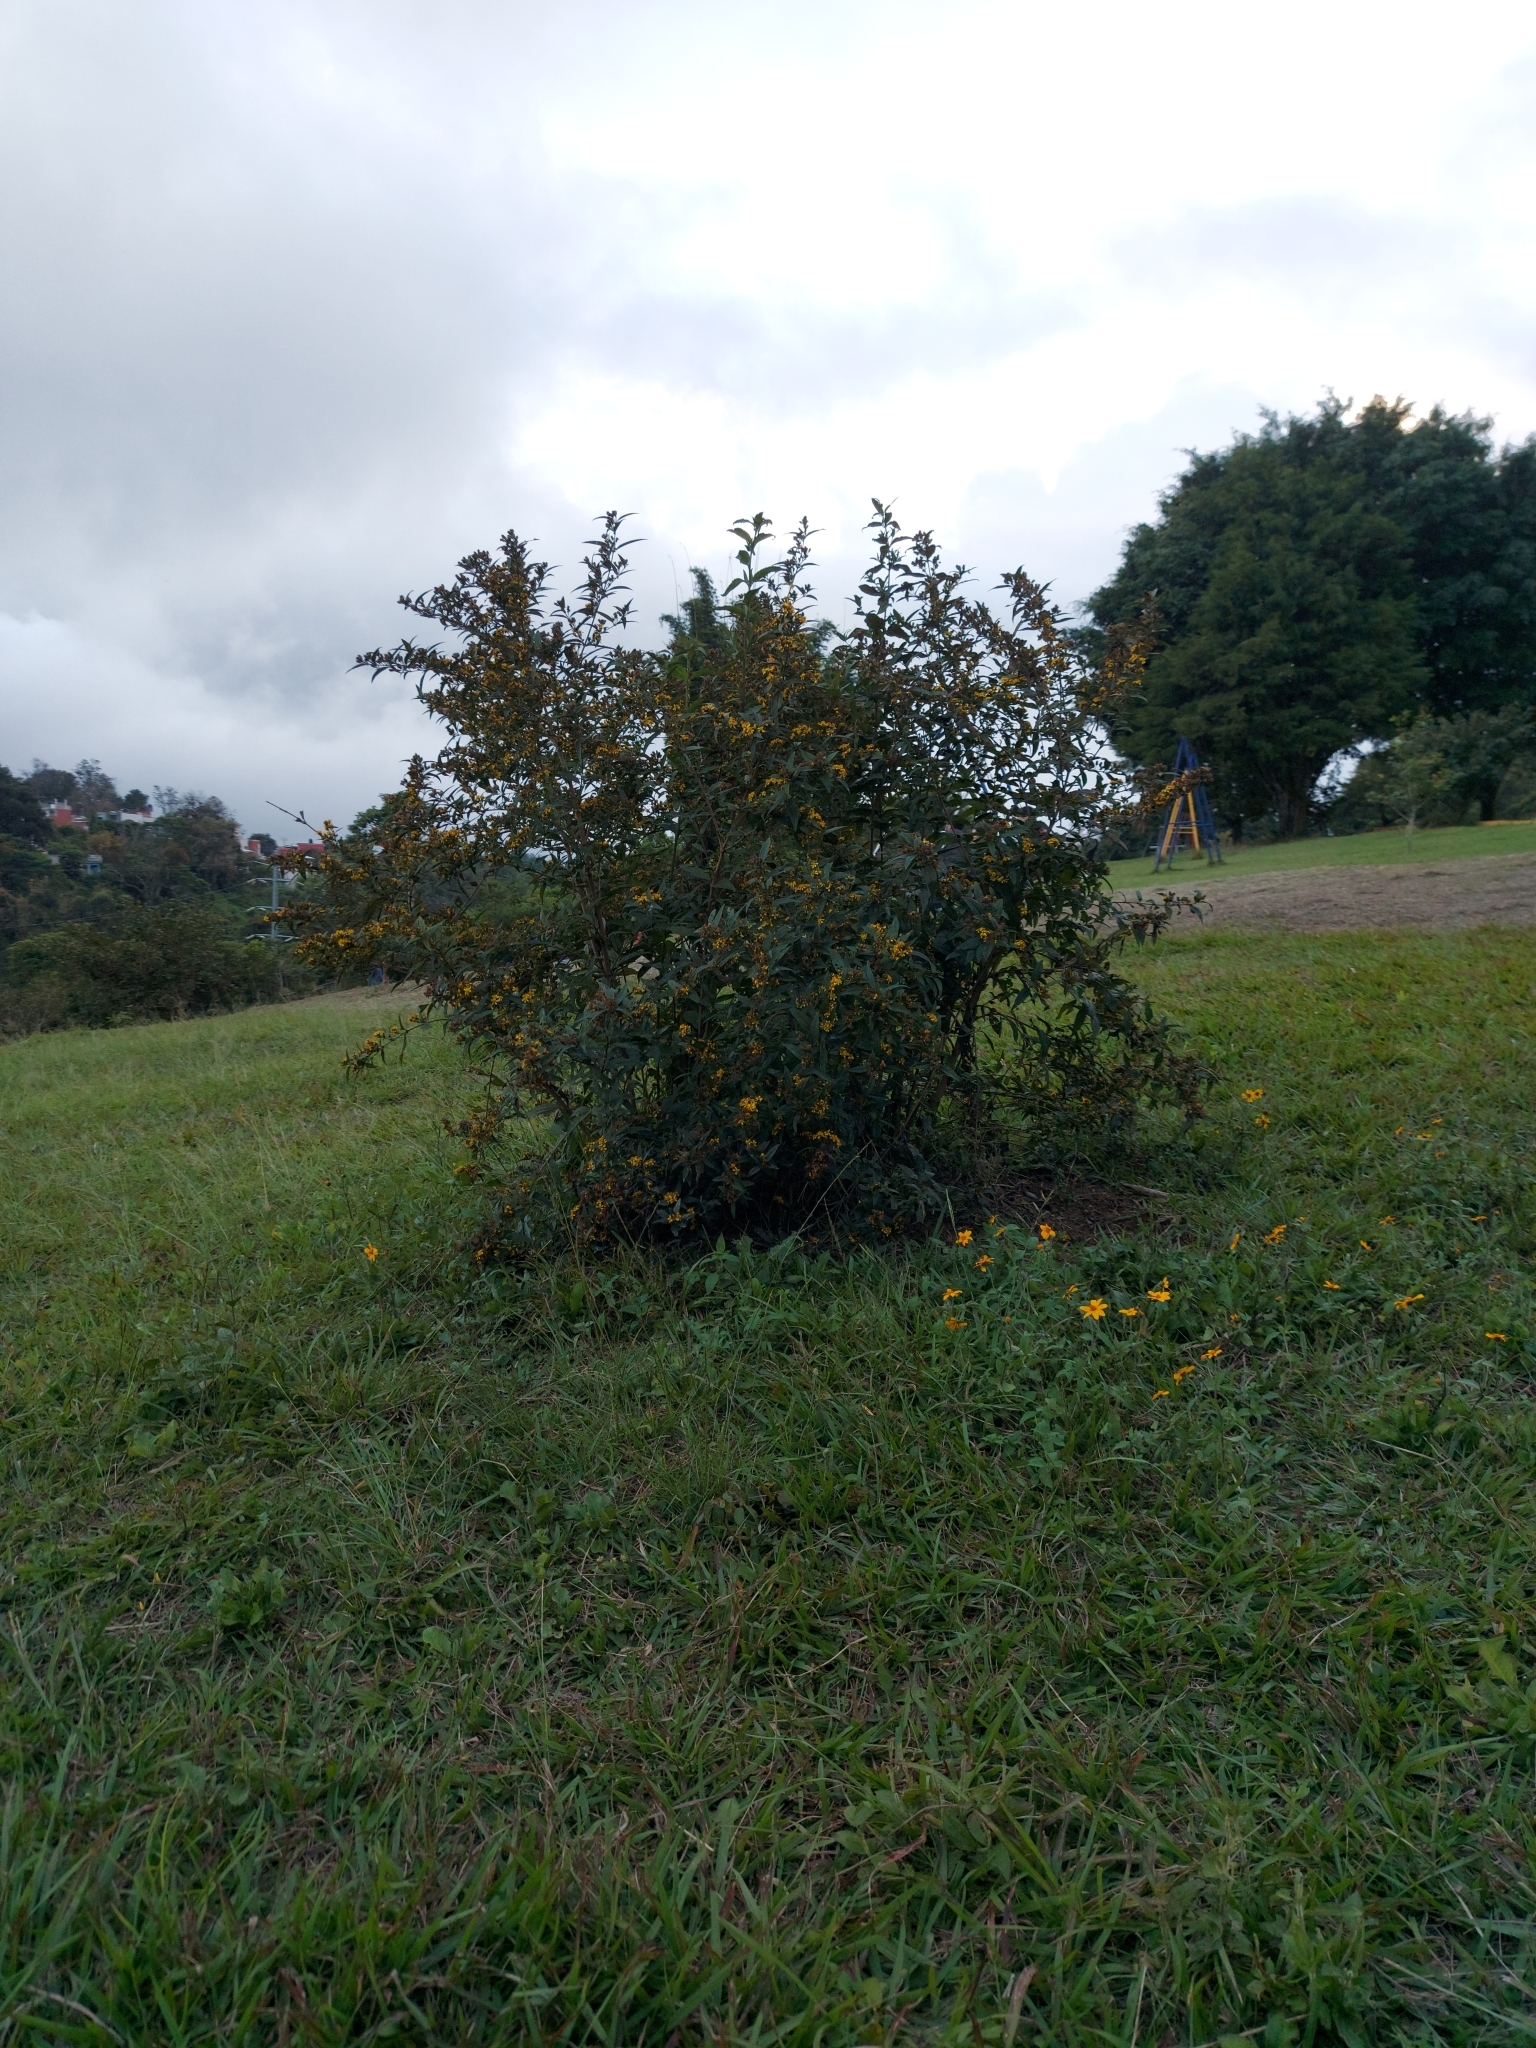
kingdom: Plantae
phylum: Tracheophyta
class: Magnoliopsida
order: Asterales
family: Asteraceae
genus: Calea
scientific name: Calea urticifolia
